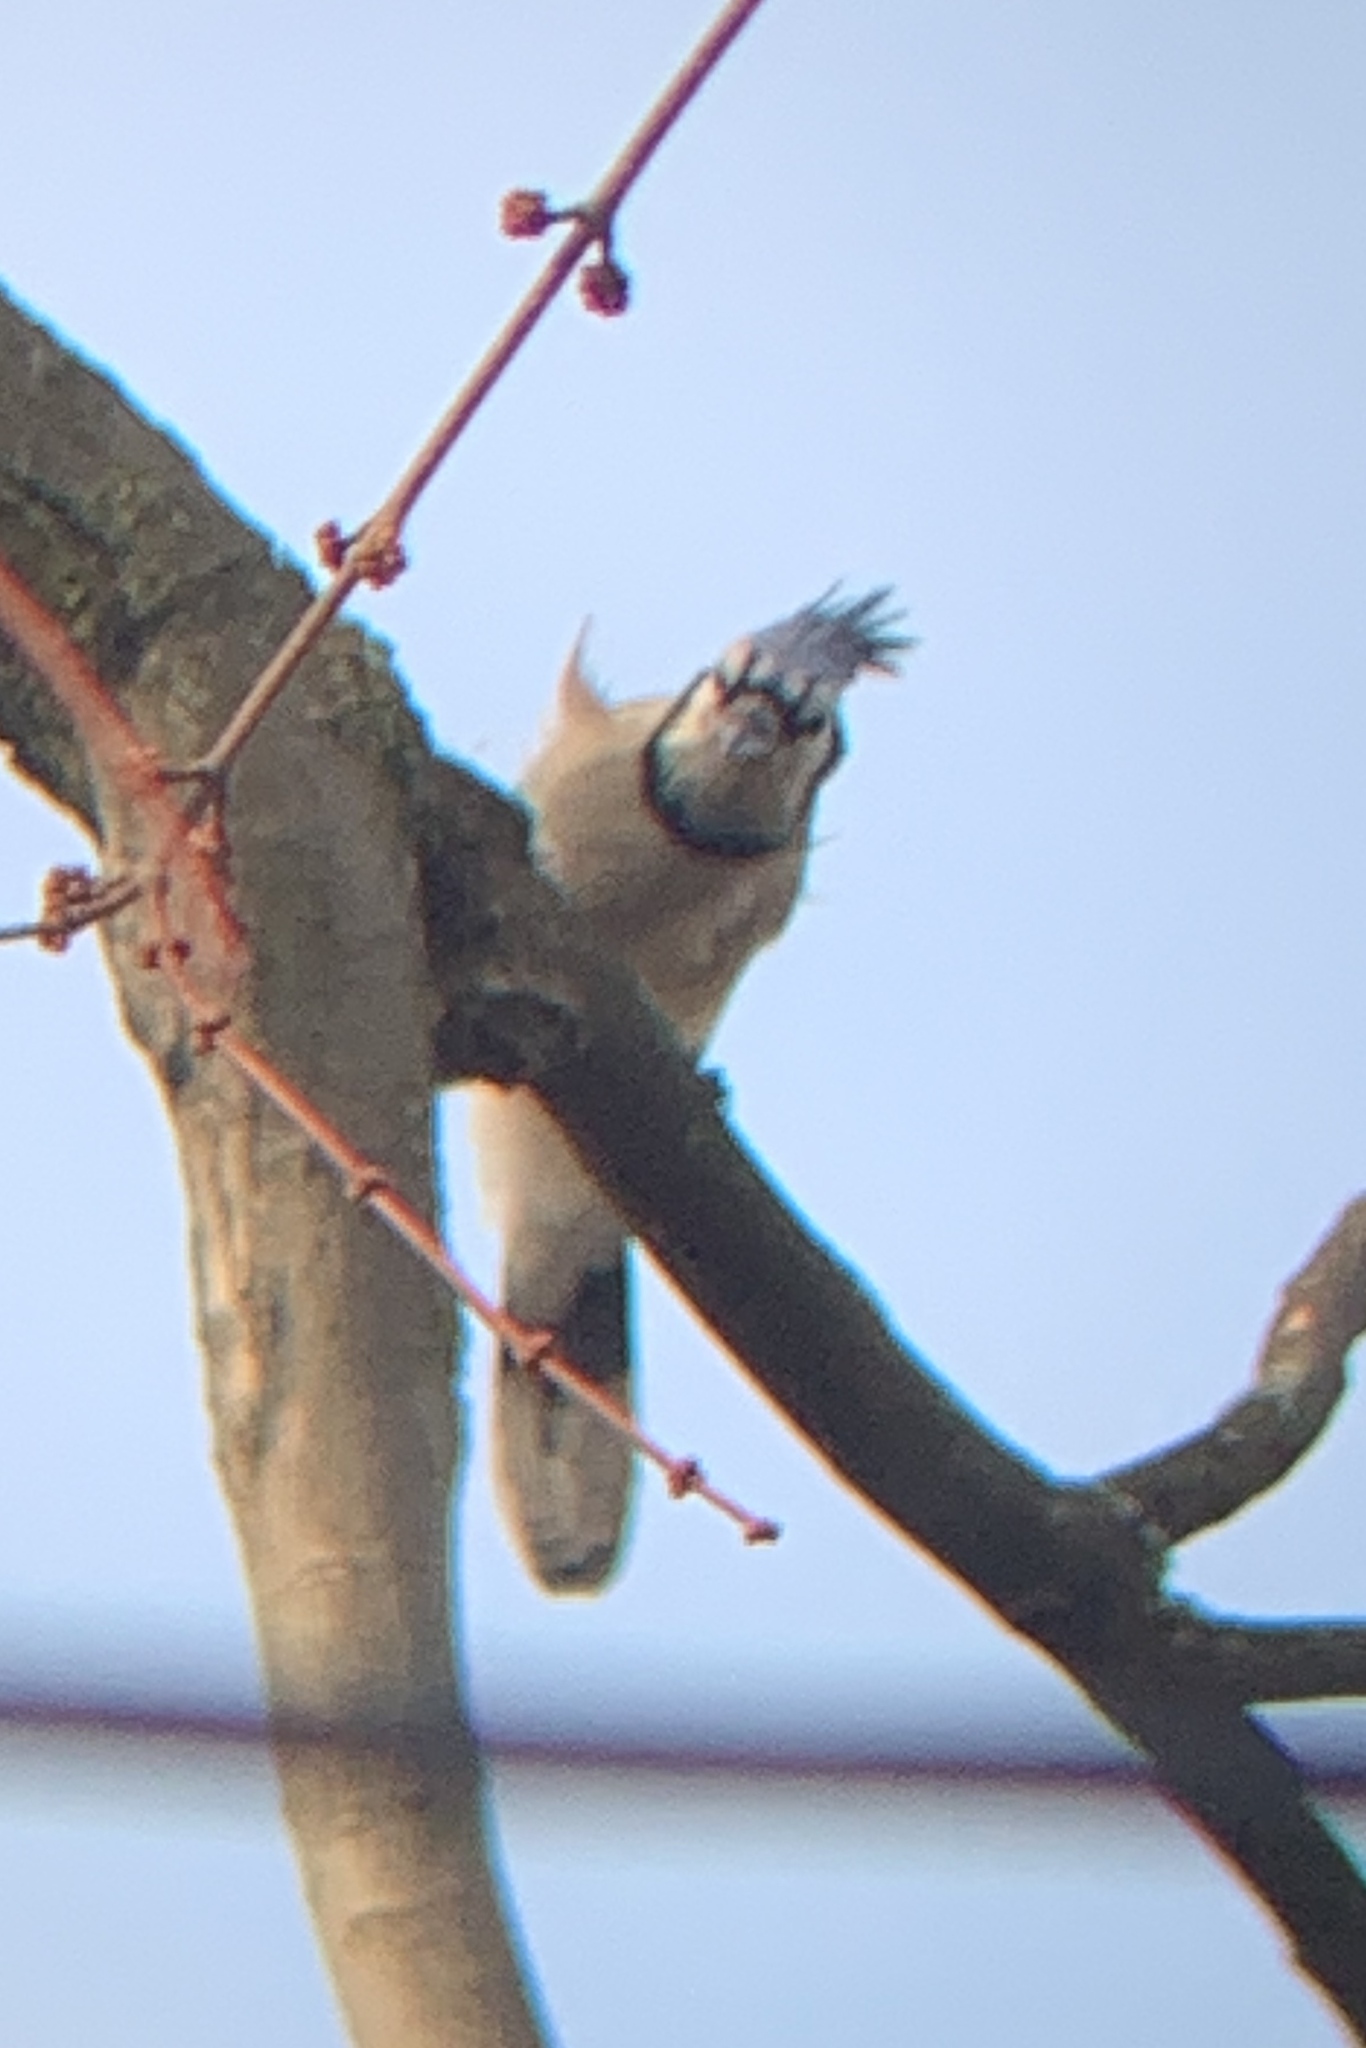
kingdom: Animalia
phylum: Chordata
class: Aves
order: Passeriformes
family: Corvidae
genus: Cyanocitta
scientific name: Cyanocitta cristata
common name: Blue jay
